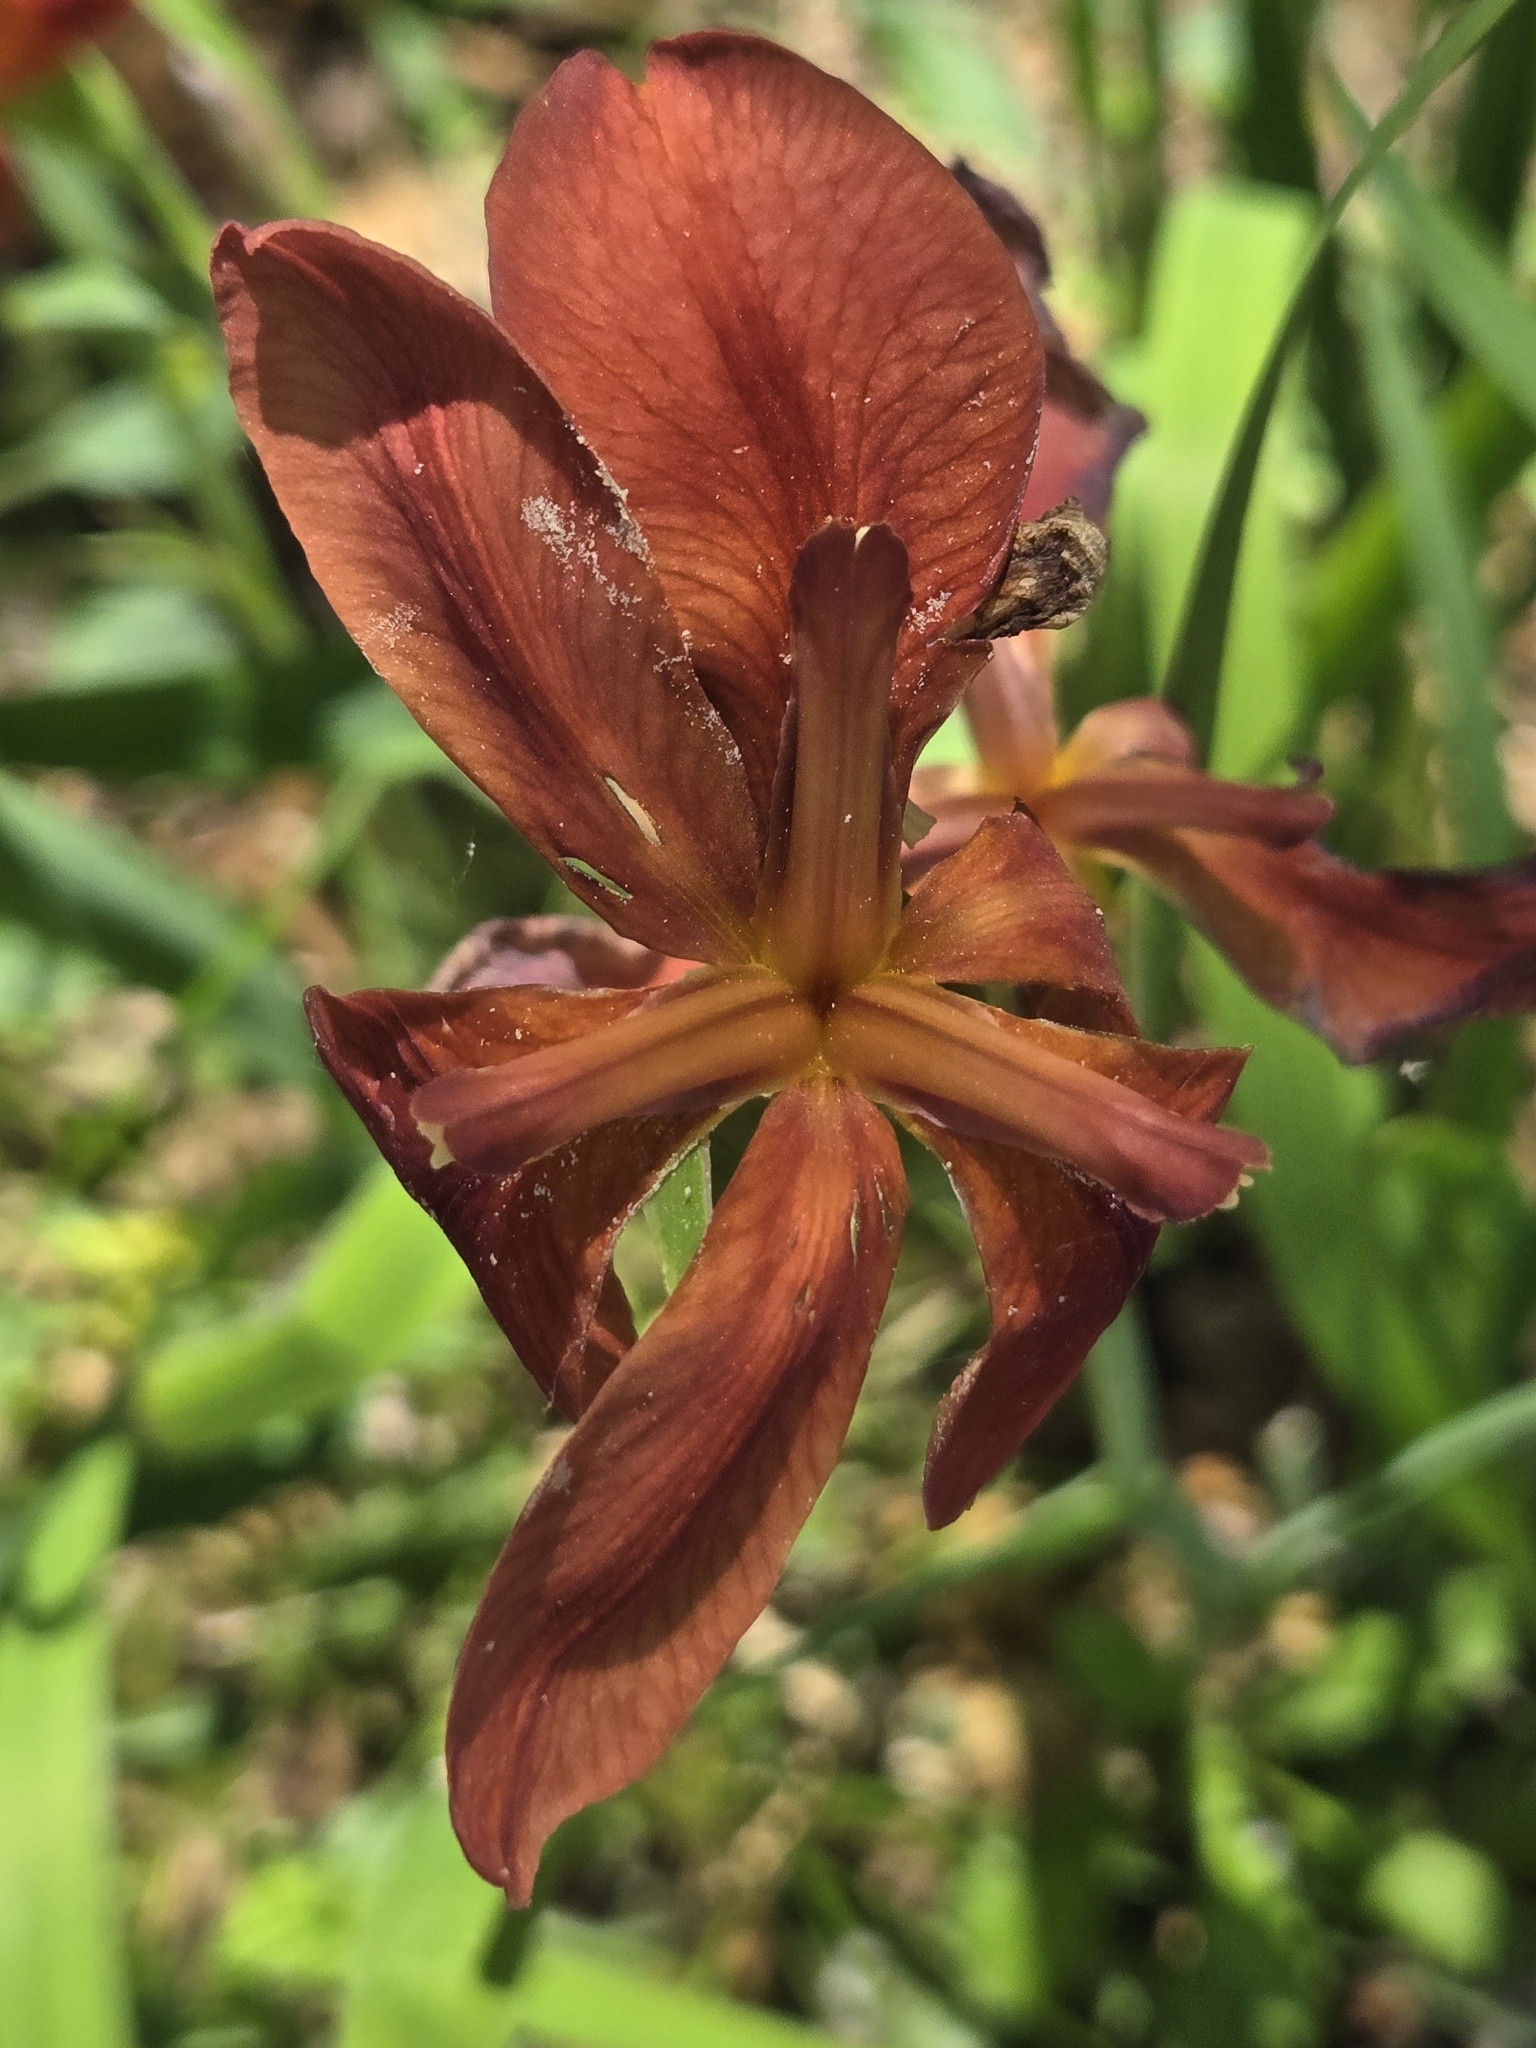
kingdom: Plantae
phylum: Tracheophyta
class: Liliopsida
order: Asparagales
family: Iridaceae
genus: Iris
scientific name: Iris fulva
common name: Copper iris
